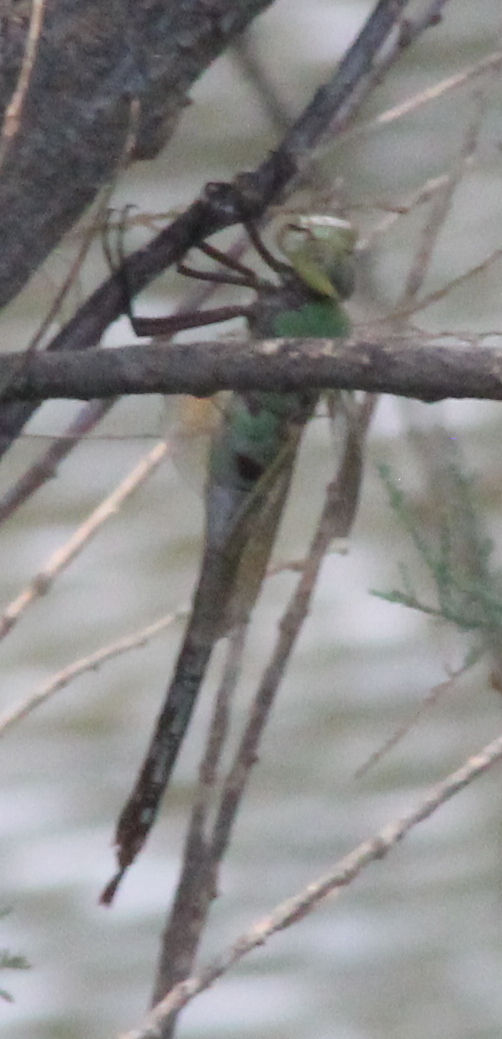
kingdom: Animalia
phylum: Arthropoda
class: Insecta
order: Odonata
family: Aeshnidae
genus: Anax
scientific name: Anax junius
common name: Common green darner
